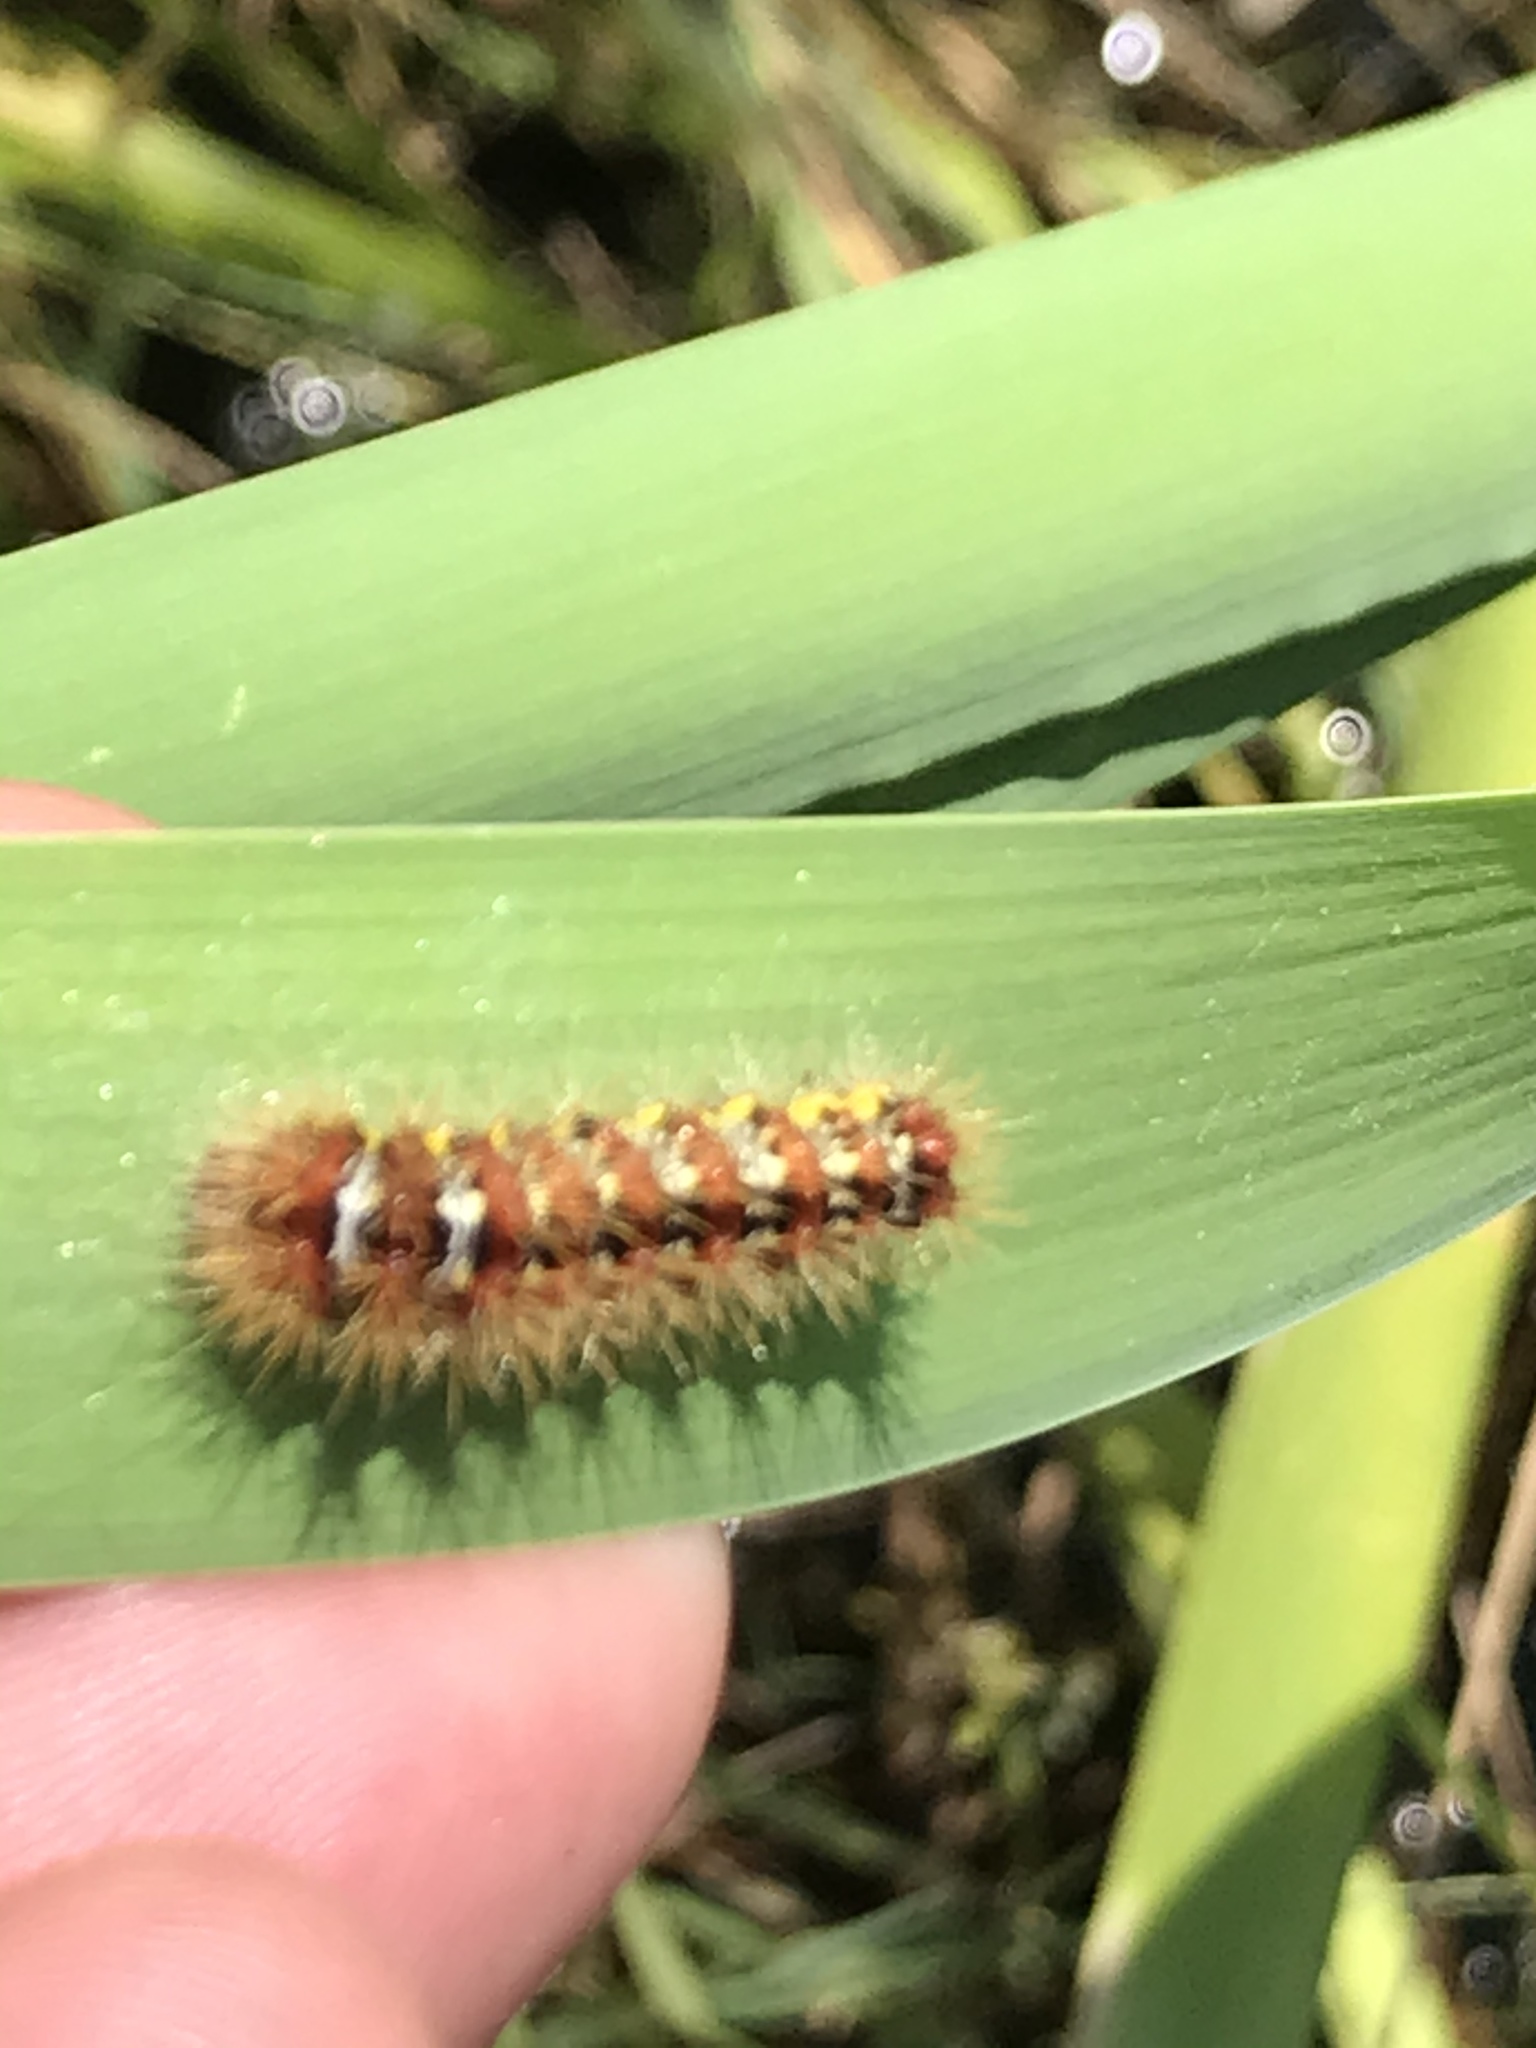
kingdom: Animalia
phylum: Arthropoda
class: Insecta
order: Lepidoptera
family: Noctuidae
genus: Acronicta
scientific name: Acronicta oblinita
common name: Smeared dagger
